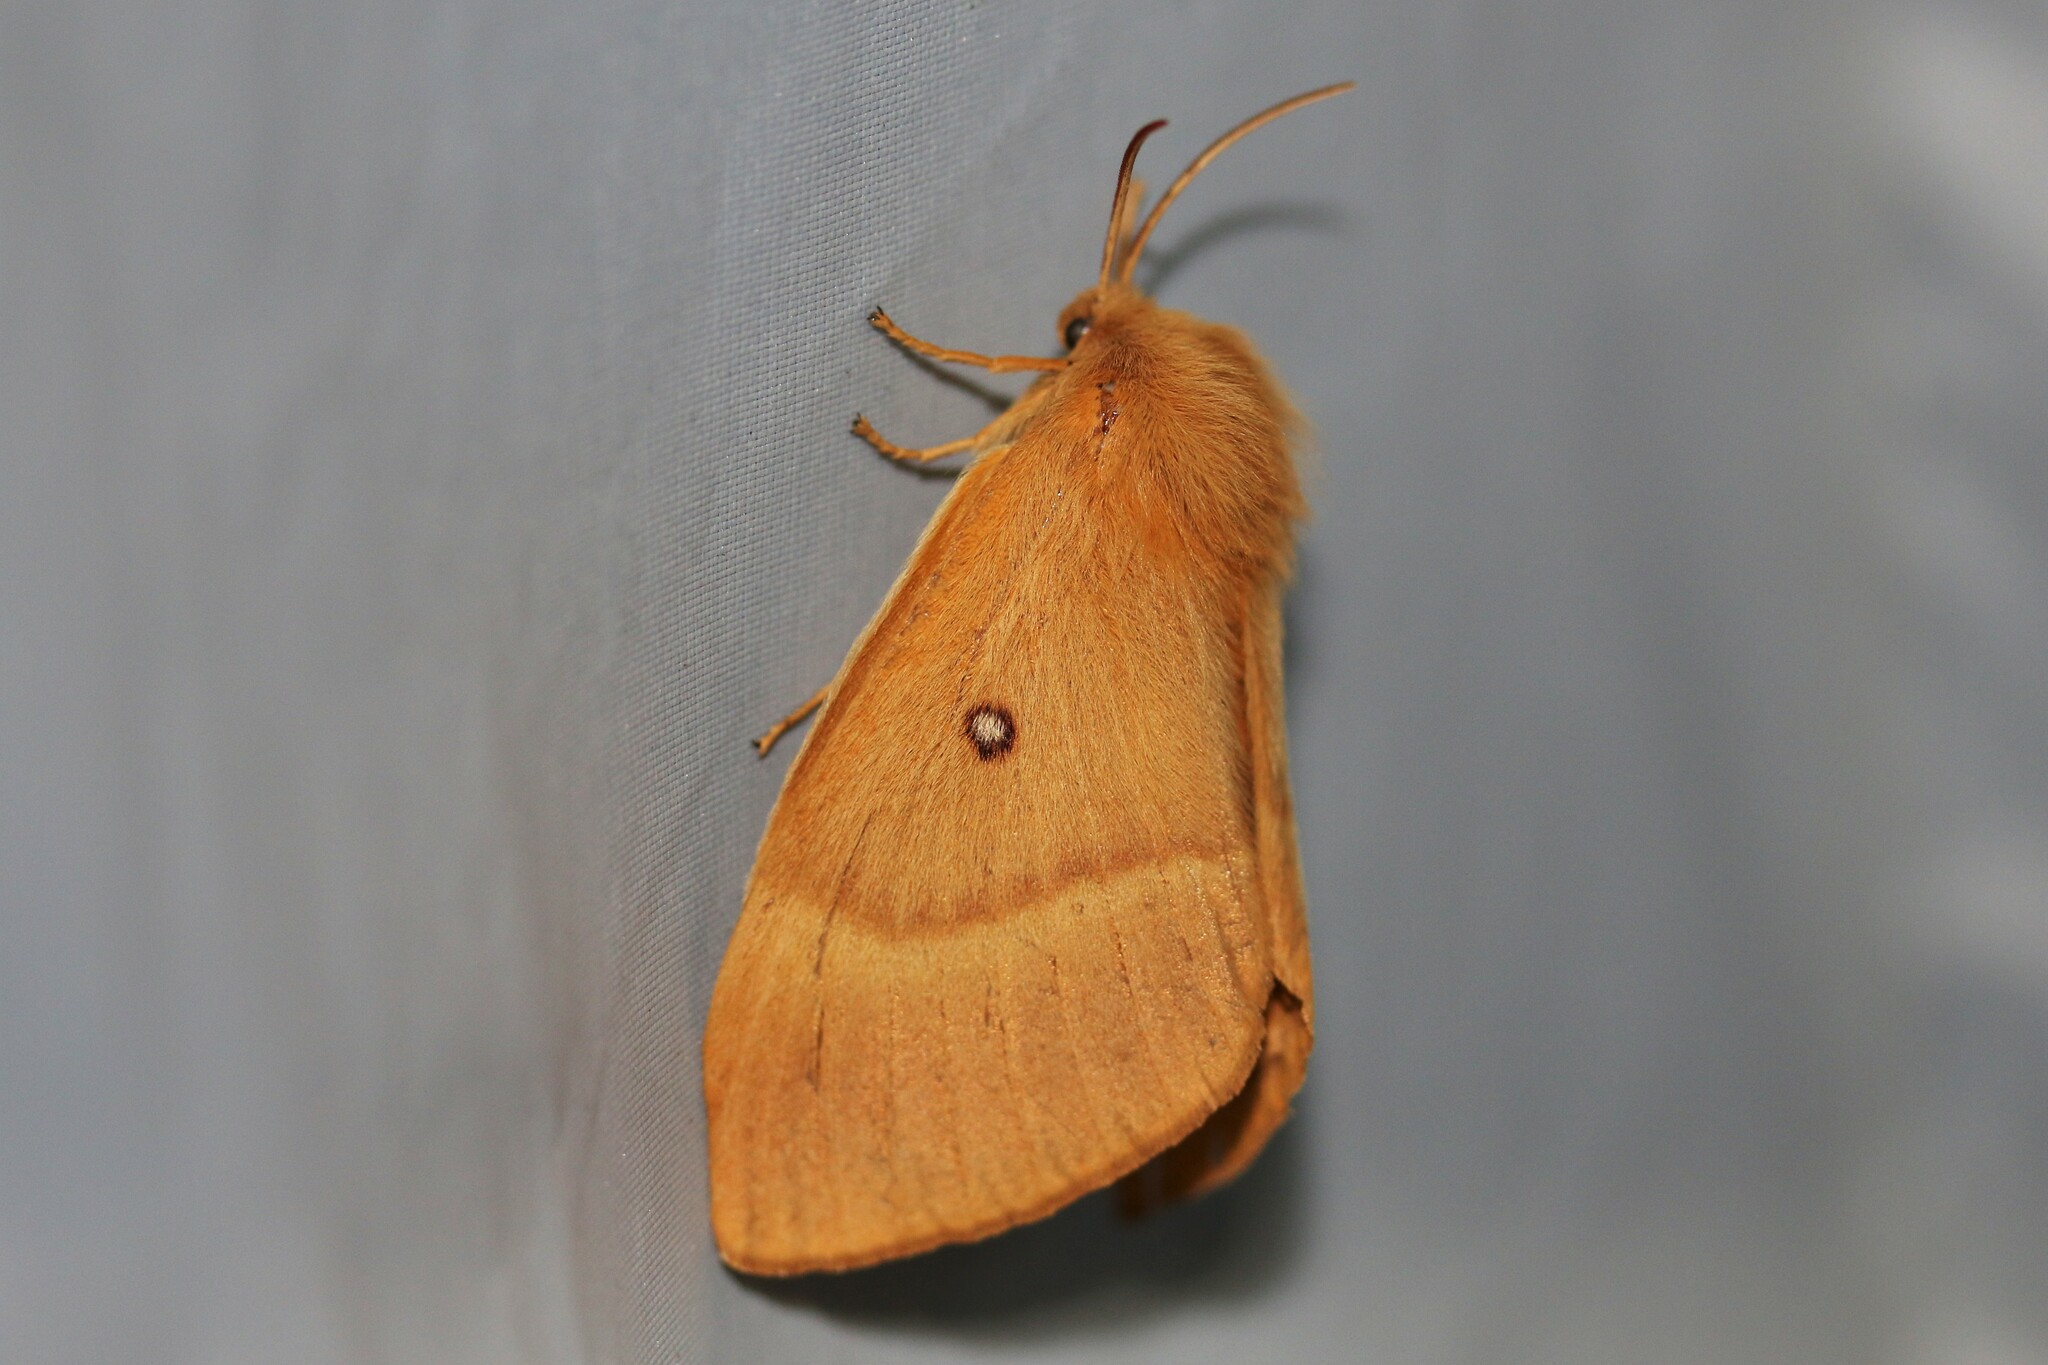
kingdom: Animalia
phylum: Arthropoda
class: Insecta
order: Lepidoptera
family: Lasiocampidae
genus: Lasiocampa
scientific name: Lasiocampa quercus
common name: Oak eggar
